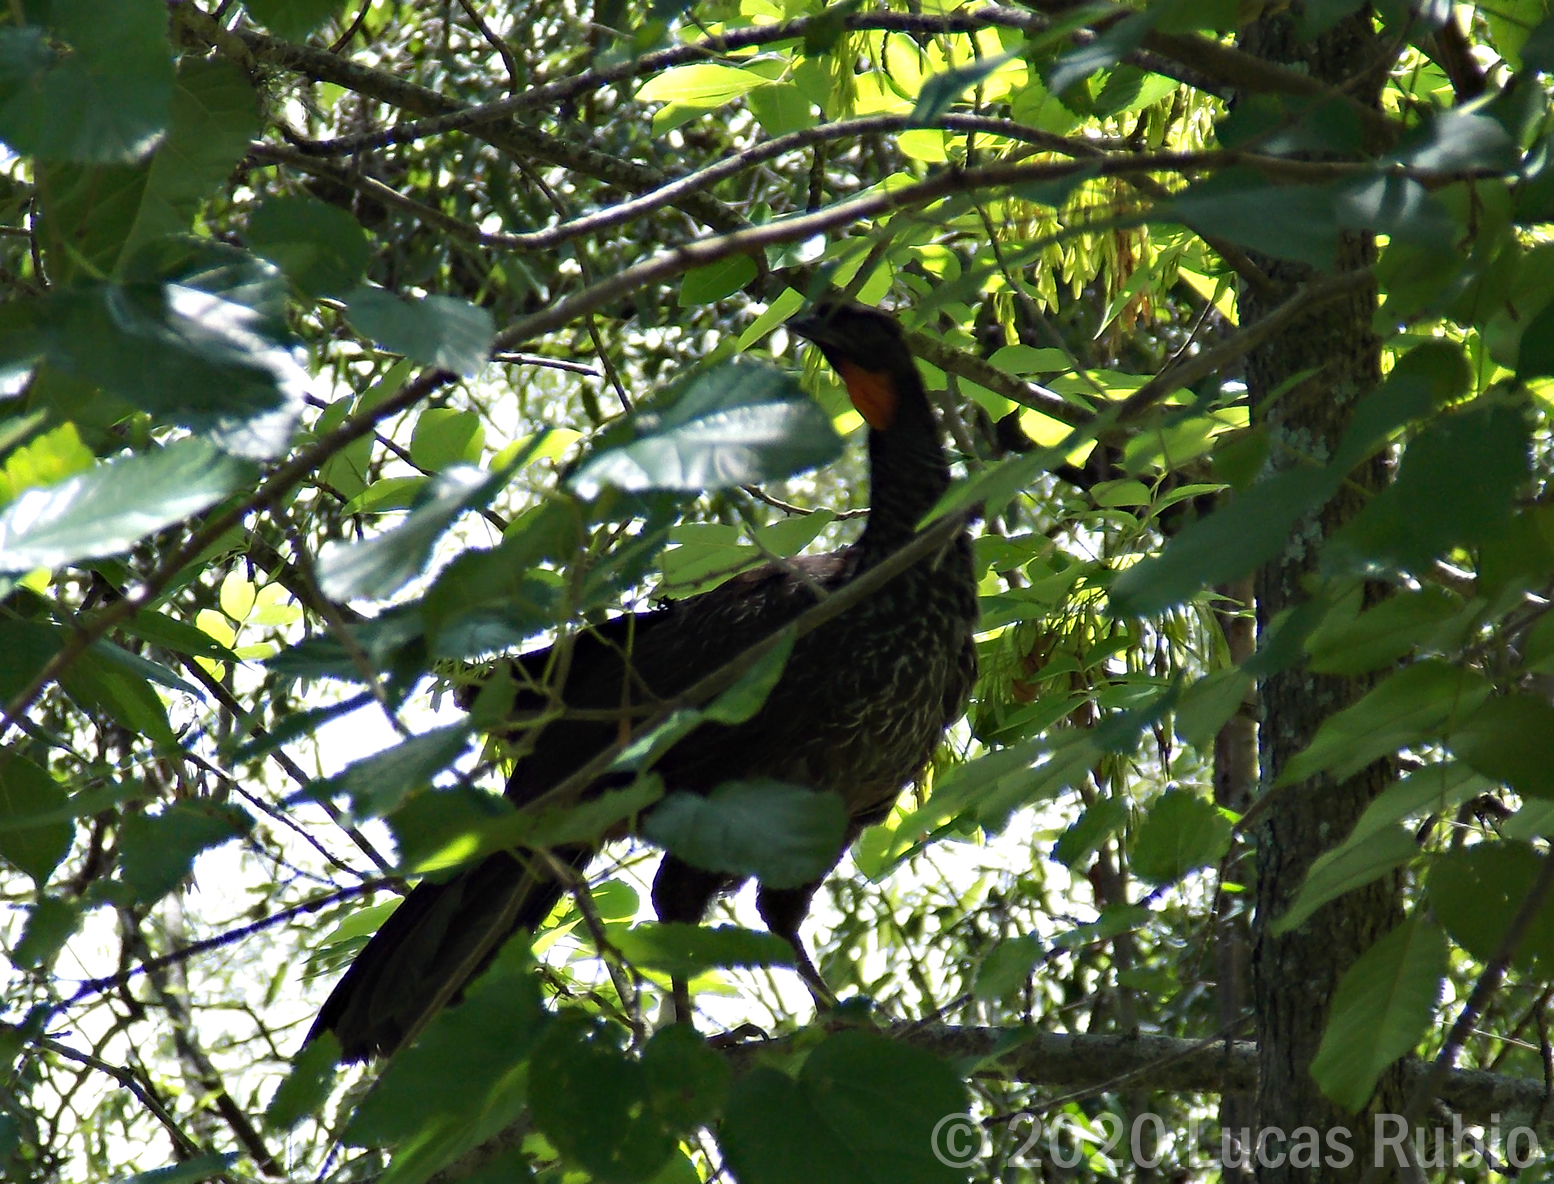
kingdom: Animalia
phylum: Chordata
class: Aves
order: Galliformes
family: Cracidae
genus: Penelope
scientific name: Penelope obscura
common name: Dusky-legged guan
